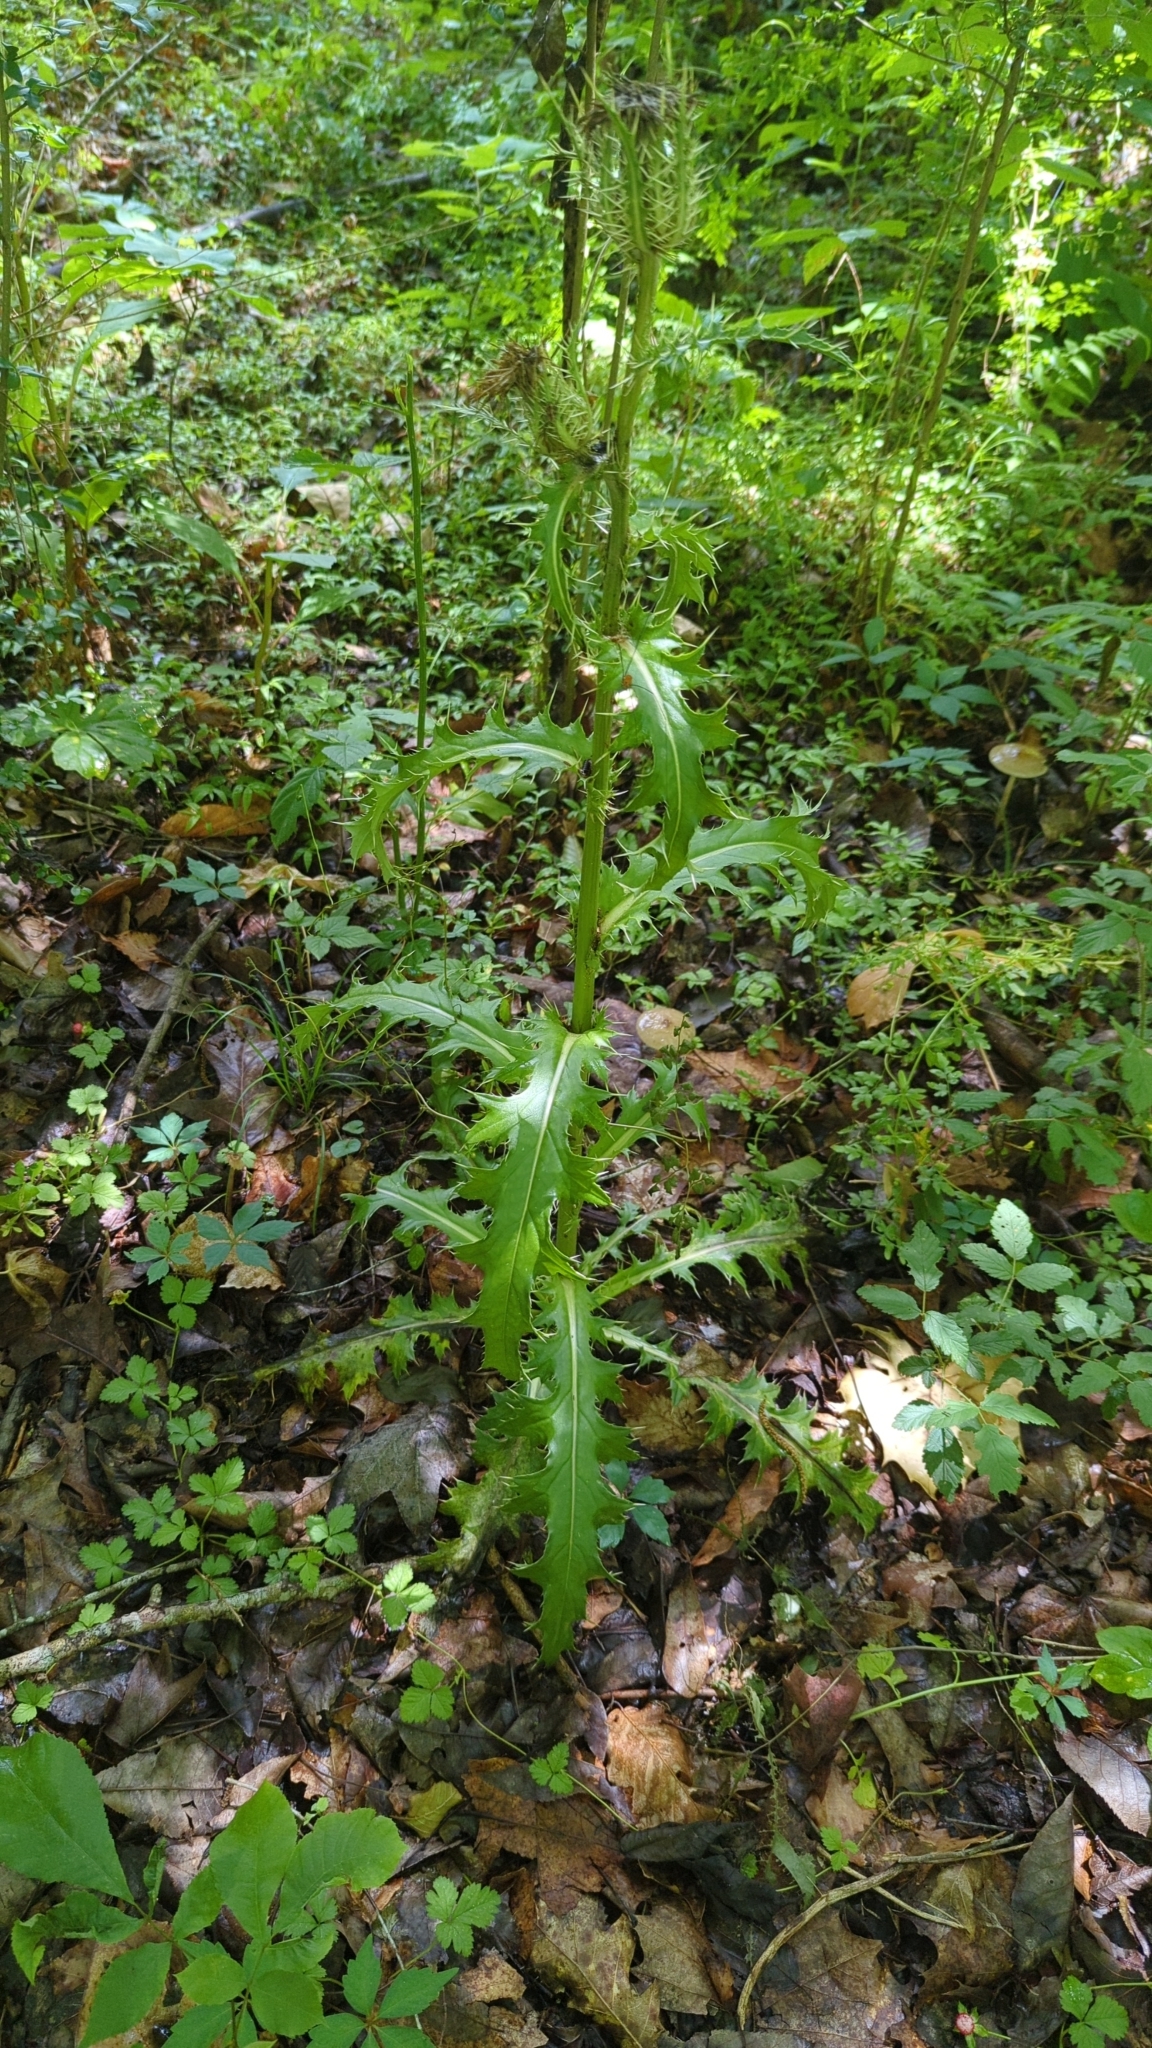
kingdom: Plantae
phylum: Tracheophyta
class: Magnoliopsida
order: Asterales
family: Asteraceae
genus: Cirsium
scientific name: Cirsium horridulum
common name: Bristly thistle
